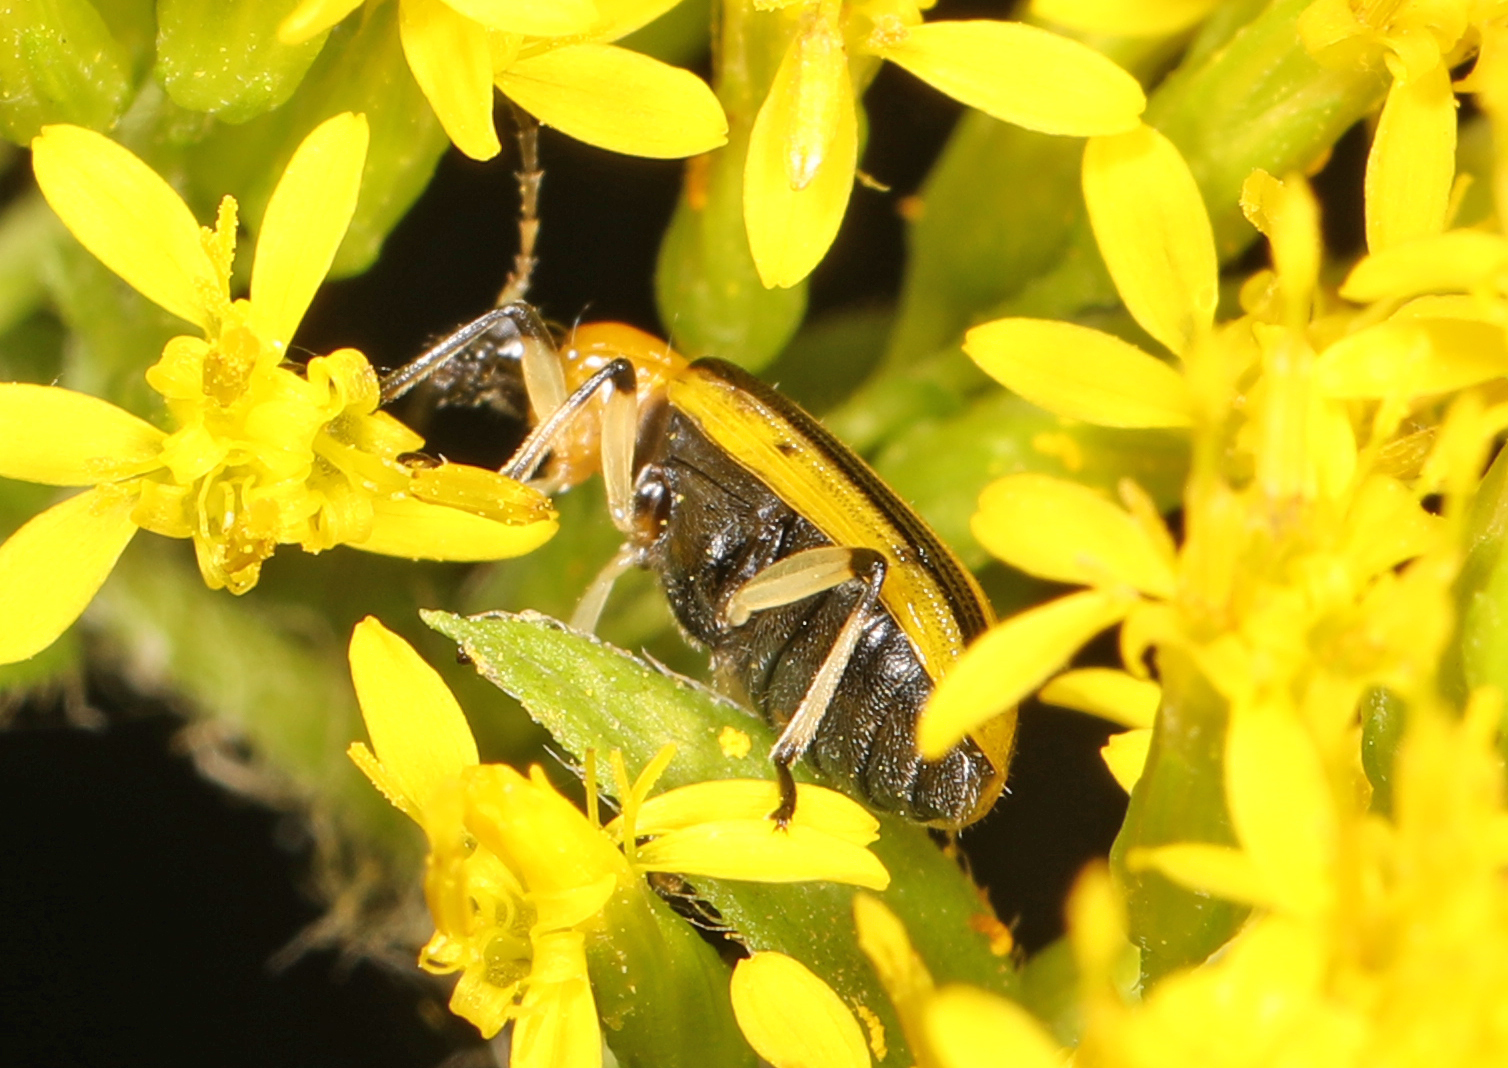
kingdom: Animalia
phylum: Arthropoda
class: Insecta
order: Coleoptera
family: Chrysomelidae
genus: Acalymma
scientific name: Acalymma vittatum
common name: Striped cucumber beetle
